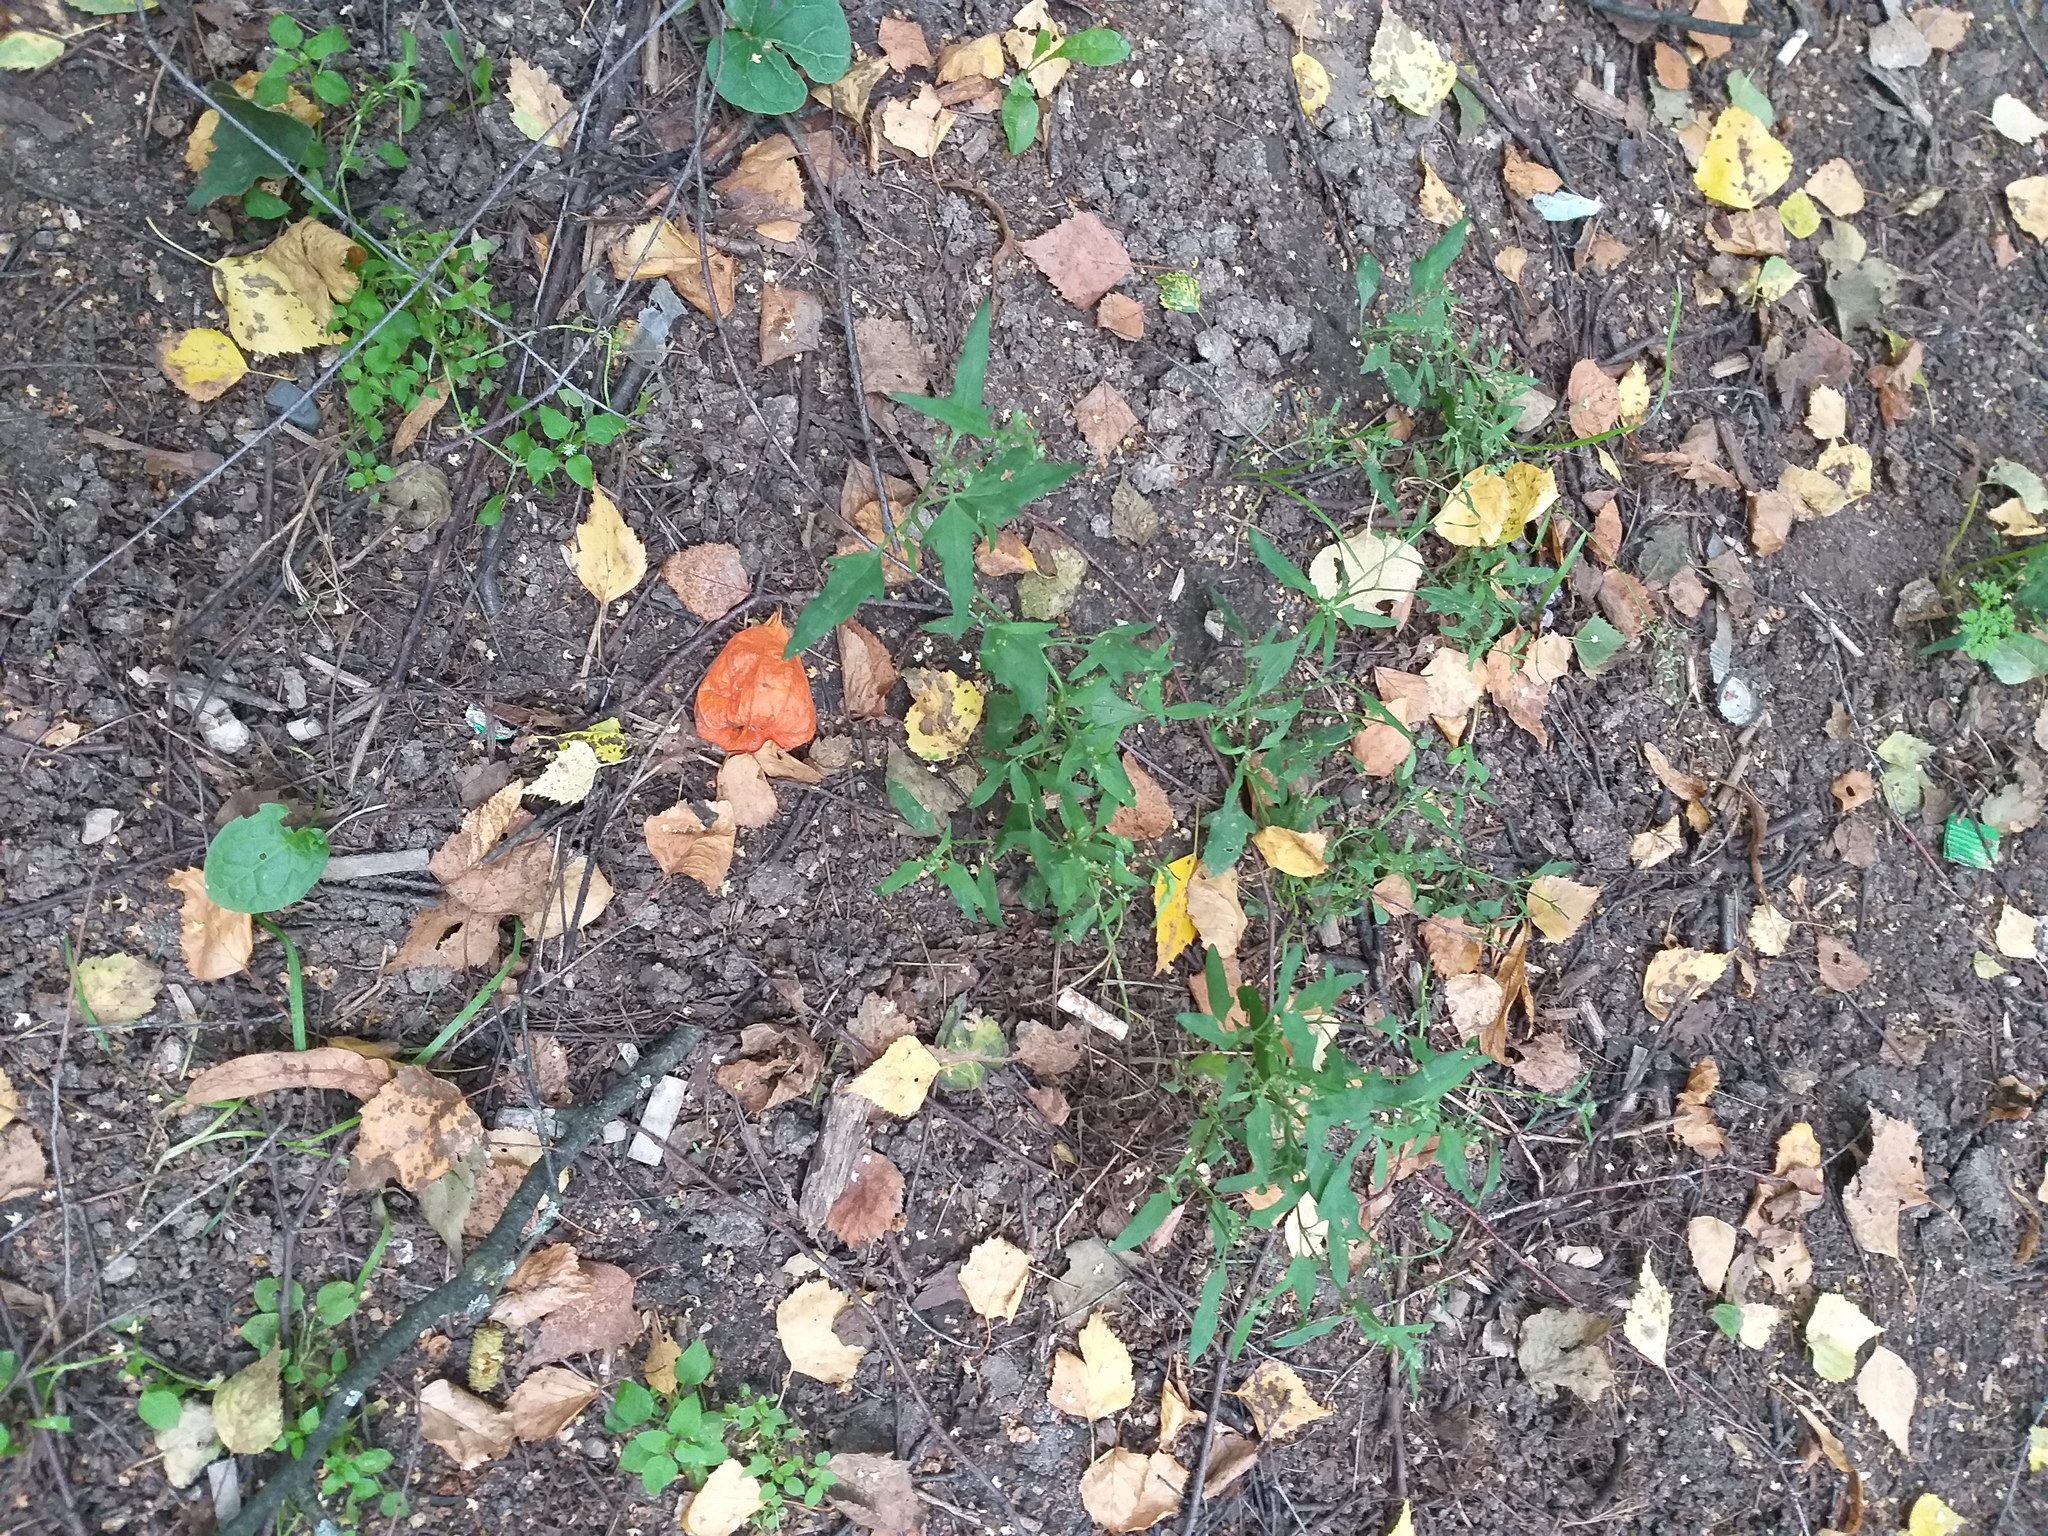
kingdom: Plantae
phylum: Tracheophyta
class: Magnoliopsida
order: Caryophyllales
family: Amaranthaceae
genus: Atriplex
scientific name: Atriplex patula
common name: Common orache
